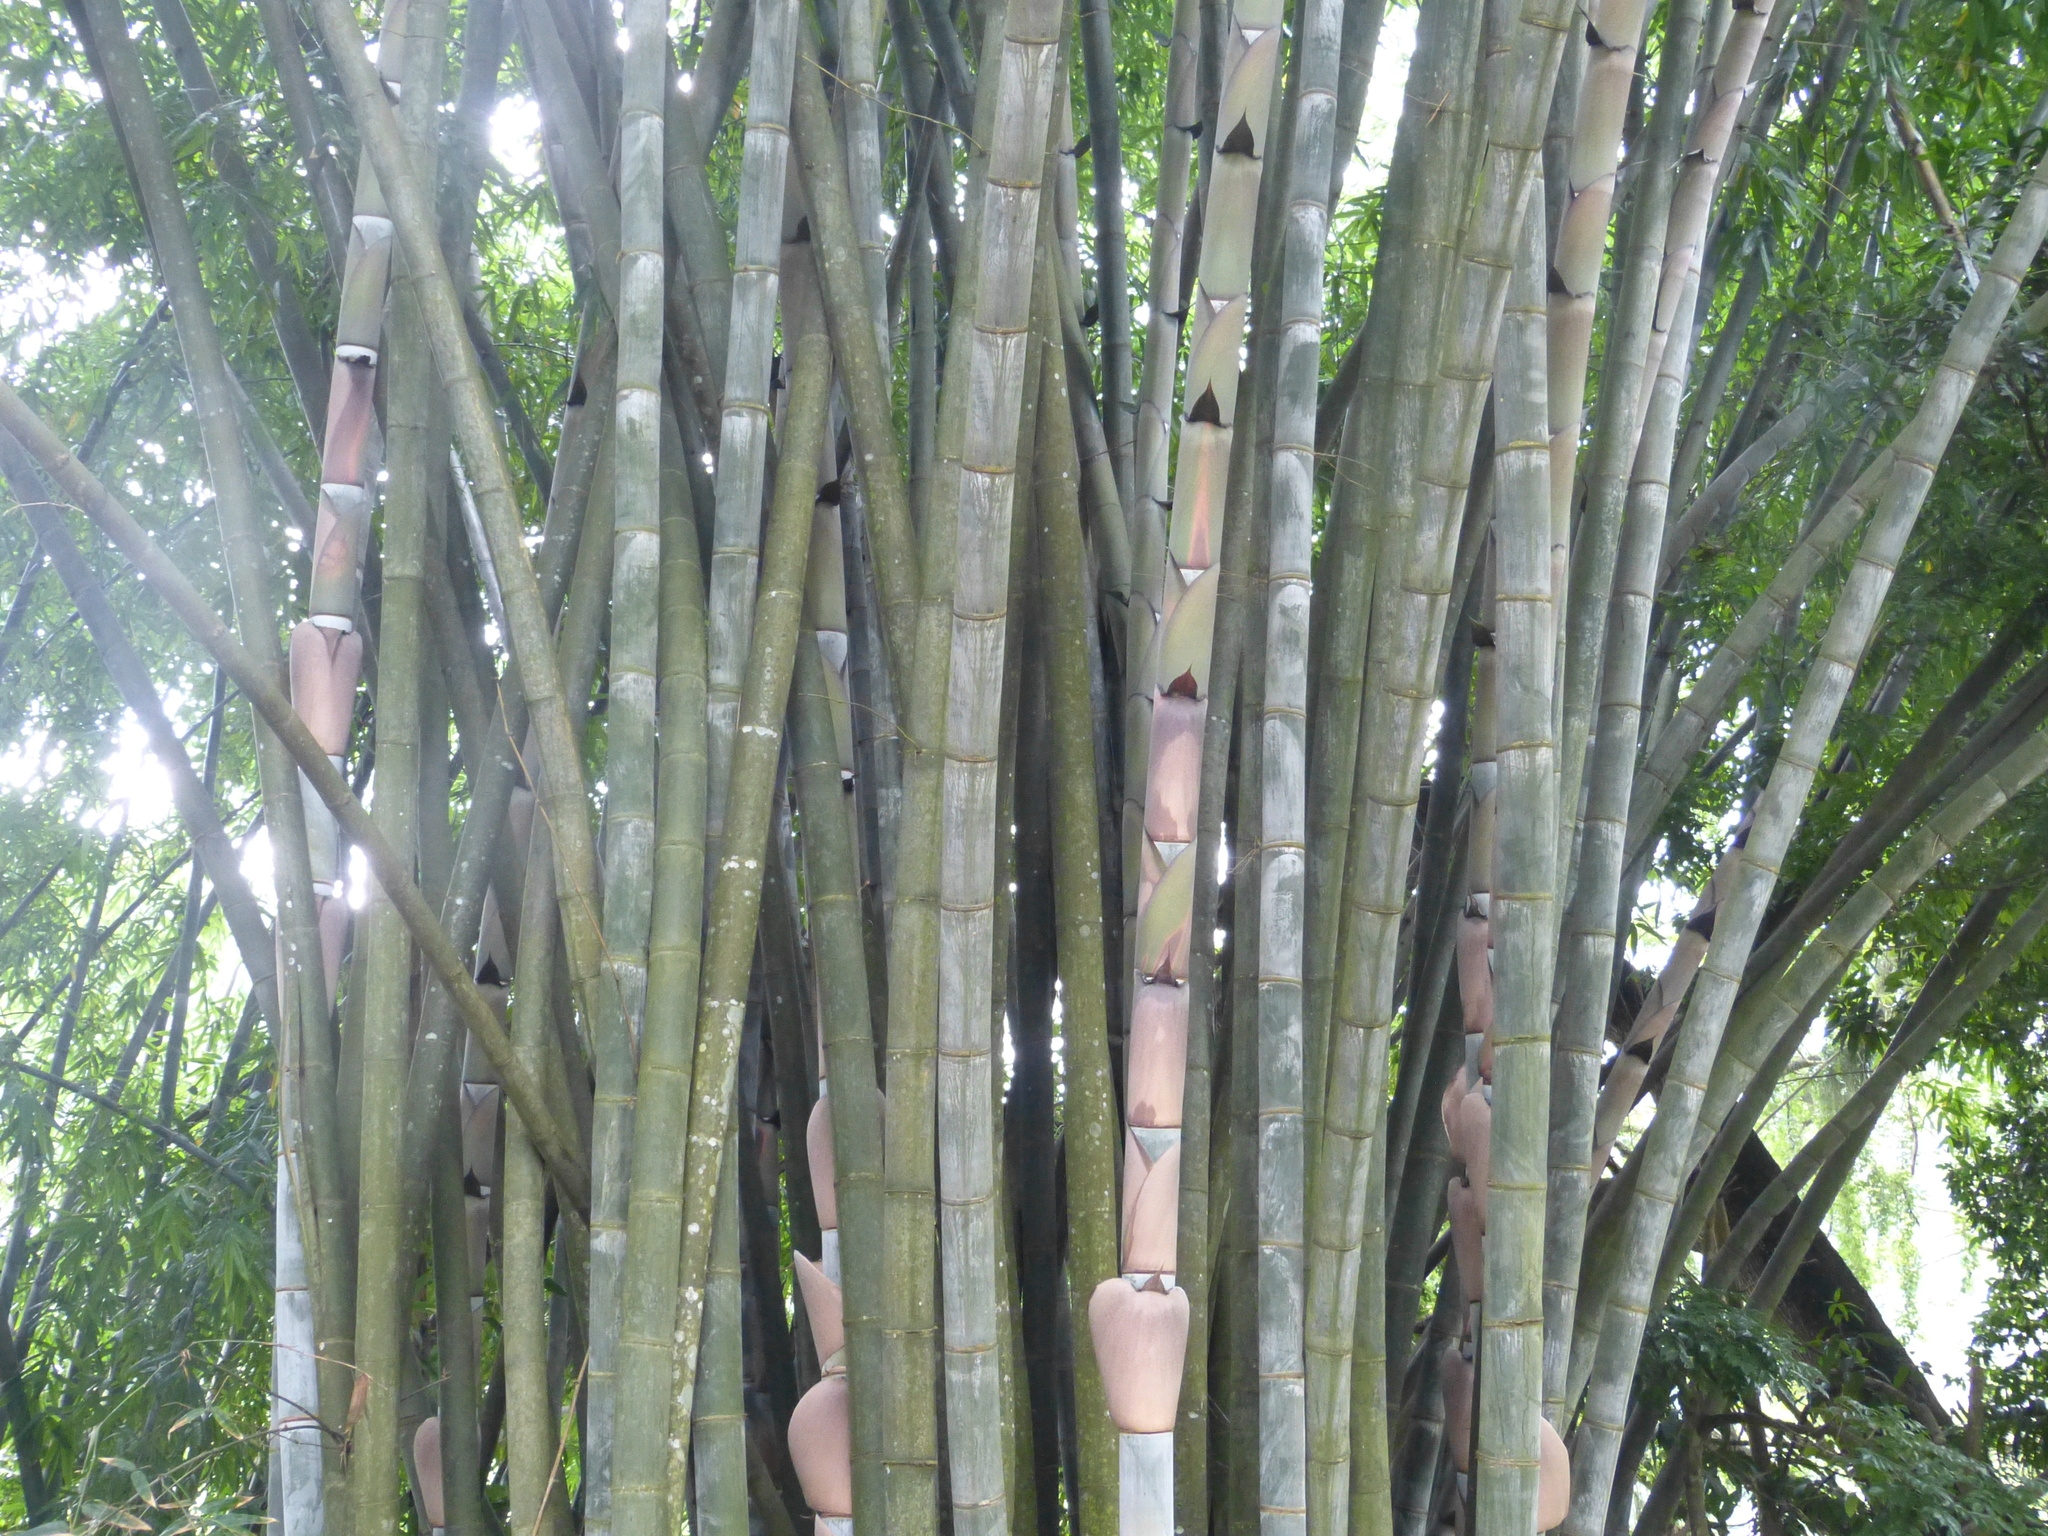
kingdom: Plantae
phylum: Tracheophyta
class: Liliopsida
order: Poales
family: Poaceae
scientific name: Poaceae
